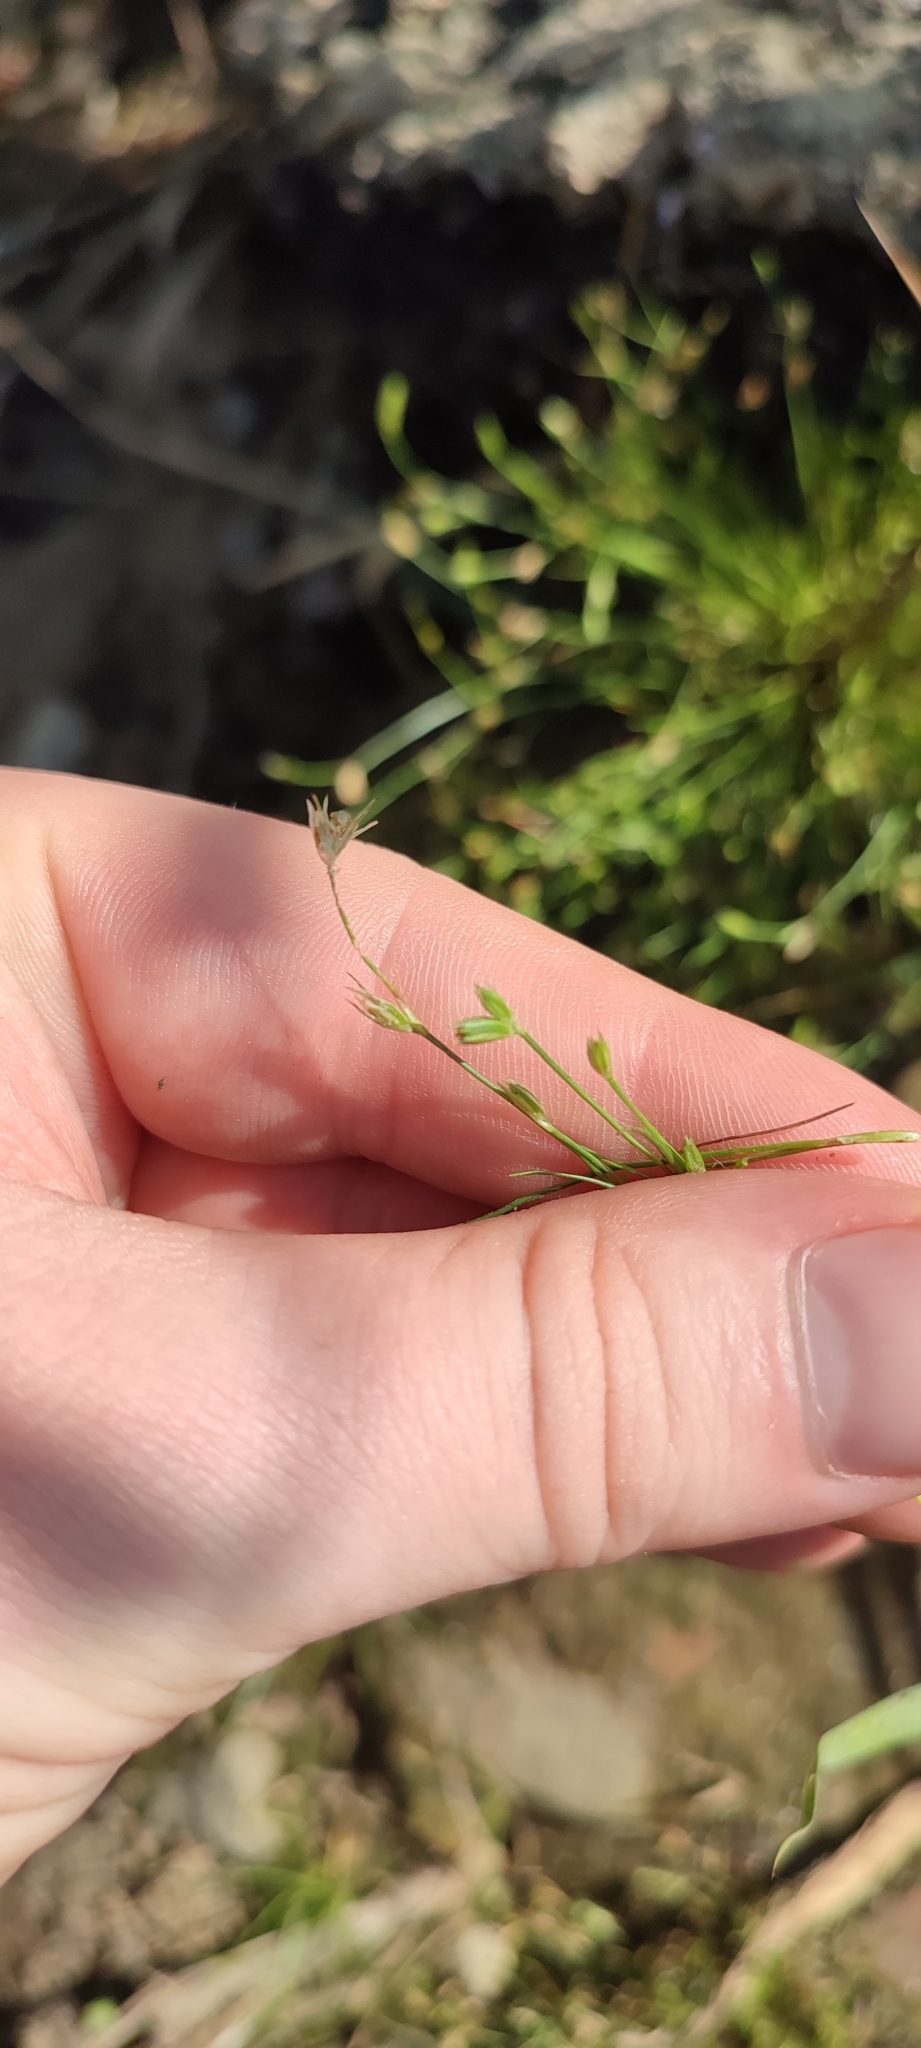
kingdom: Plantae
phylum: Tracheophyta
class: Liliopsida
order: Poales
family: Juncaceae
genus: Juncus
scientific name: Juncus bufonius
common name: Toad rush
